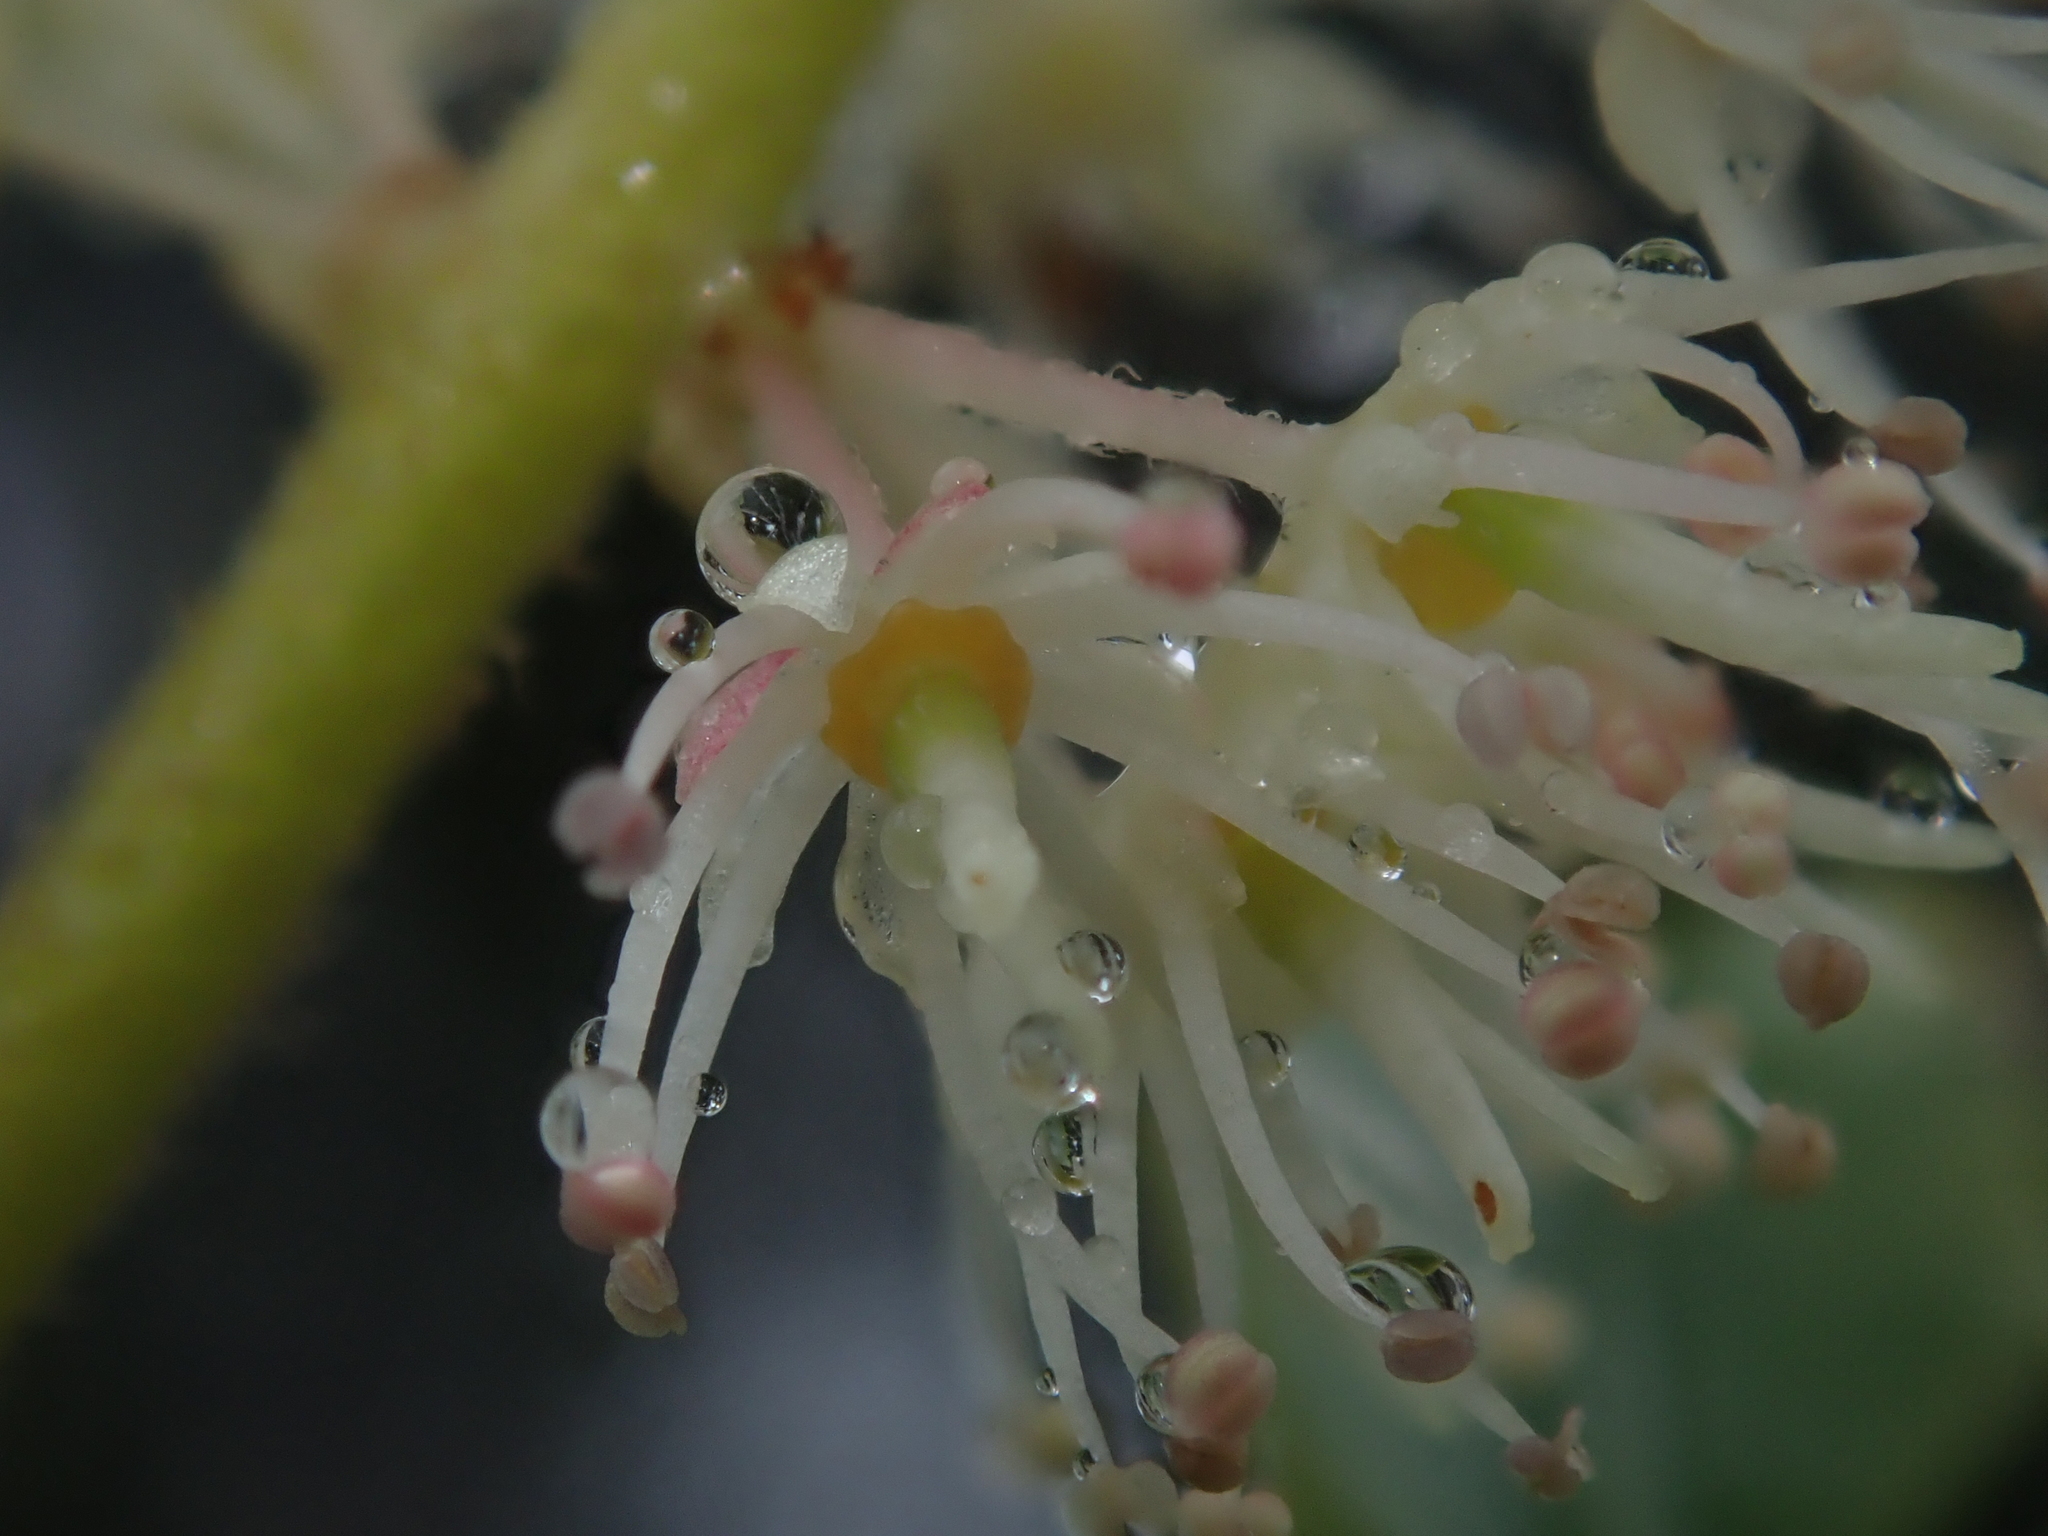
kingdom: Plantae
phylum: Tracheophyta
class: Magnoliopsida
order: Oxalidales
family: Cunoniaceae
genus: Weinmannia
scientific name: Weinmannia trichosperma
